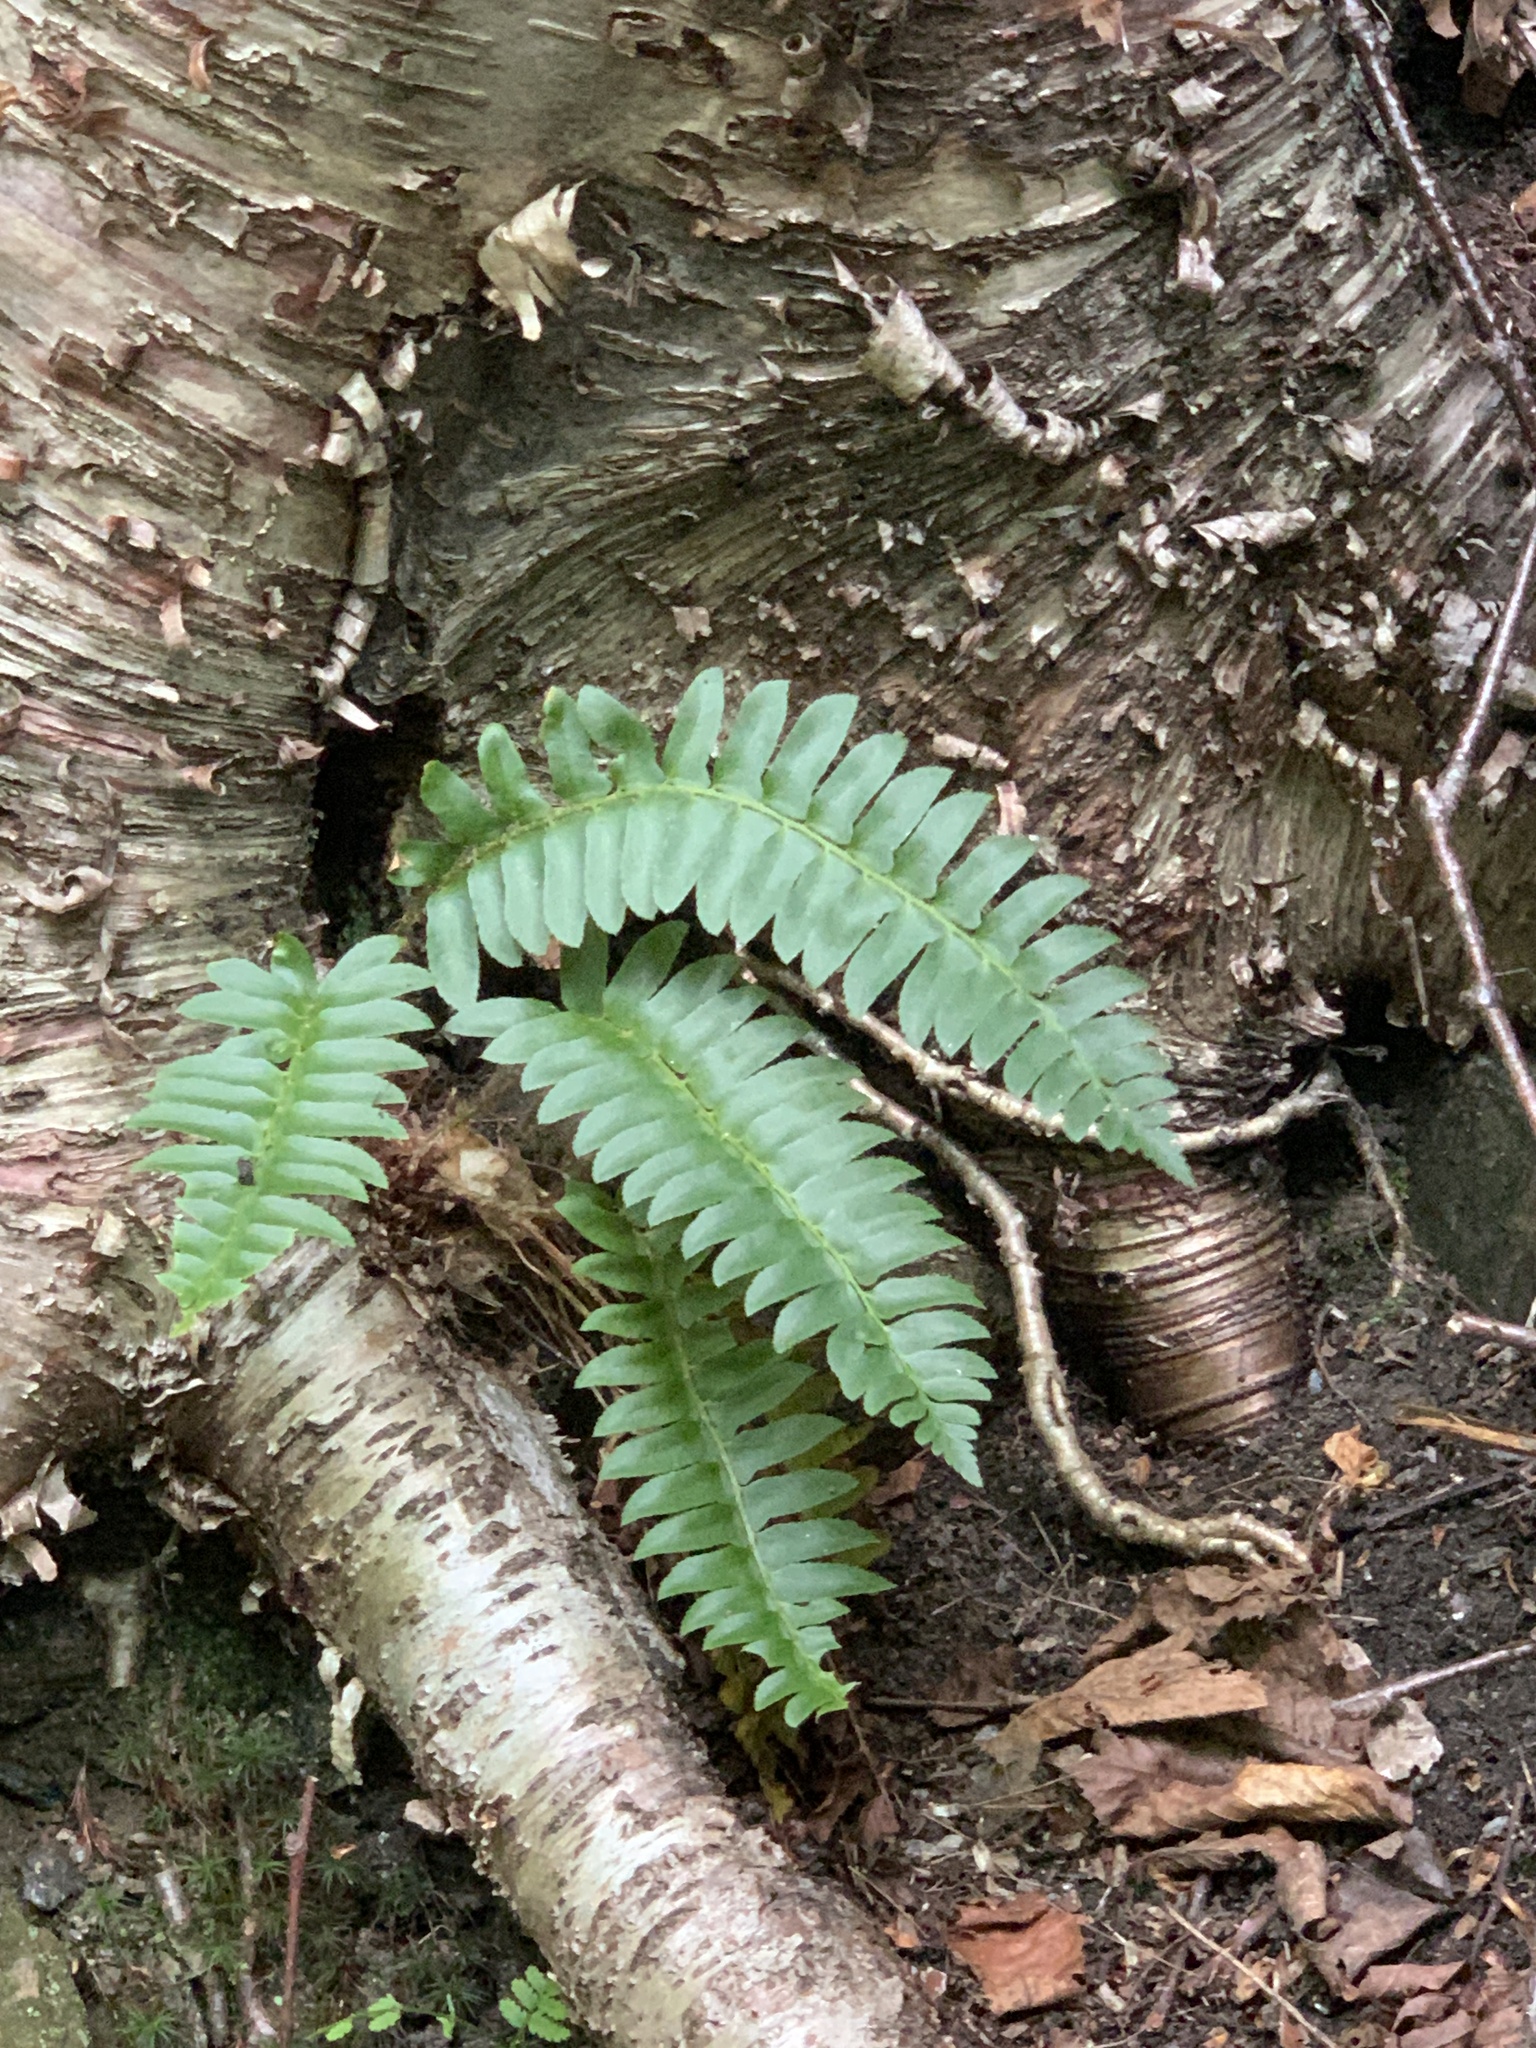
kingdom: Plantae
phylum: Tracheophyta
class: Polypodiopsida
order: Polypodiales
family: Dryopteridaceae
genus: Polystichum
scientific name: Polystichum acrostichoides
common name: Christmas fern
